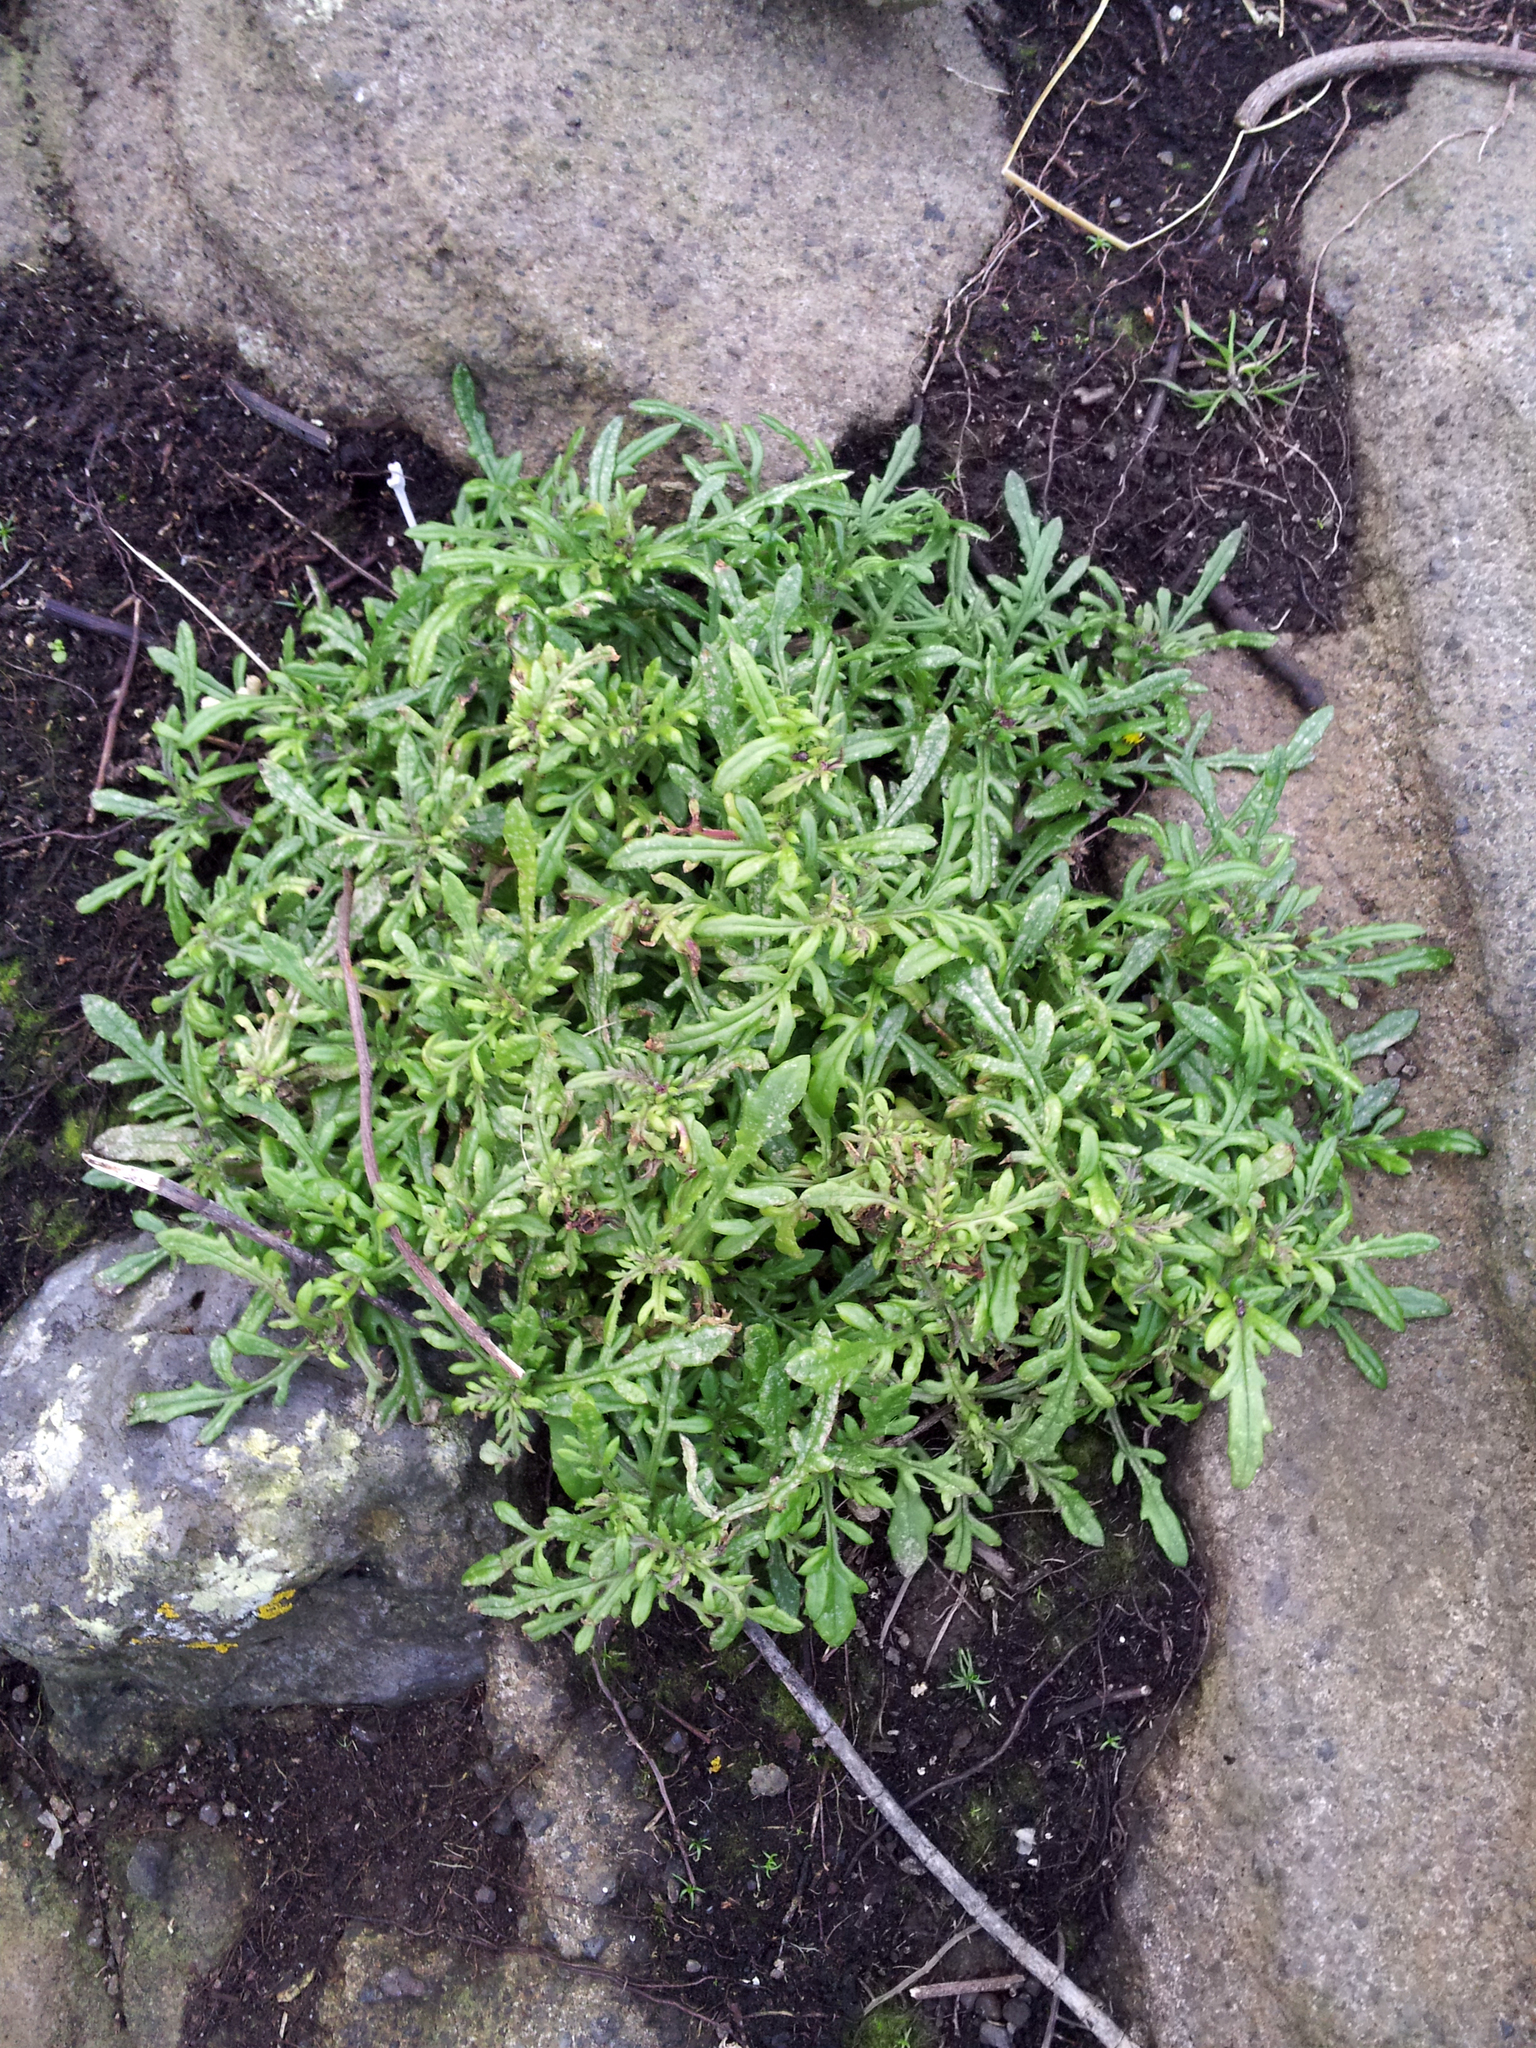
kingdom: Plantae
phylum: Tracheophyta
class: Magnoliopsida
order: Asterales
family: Asteraceae
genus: Senecio
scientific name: Senecio lautus
